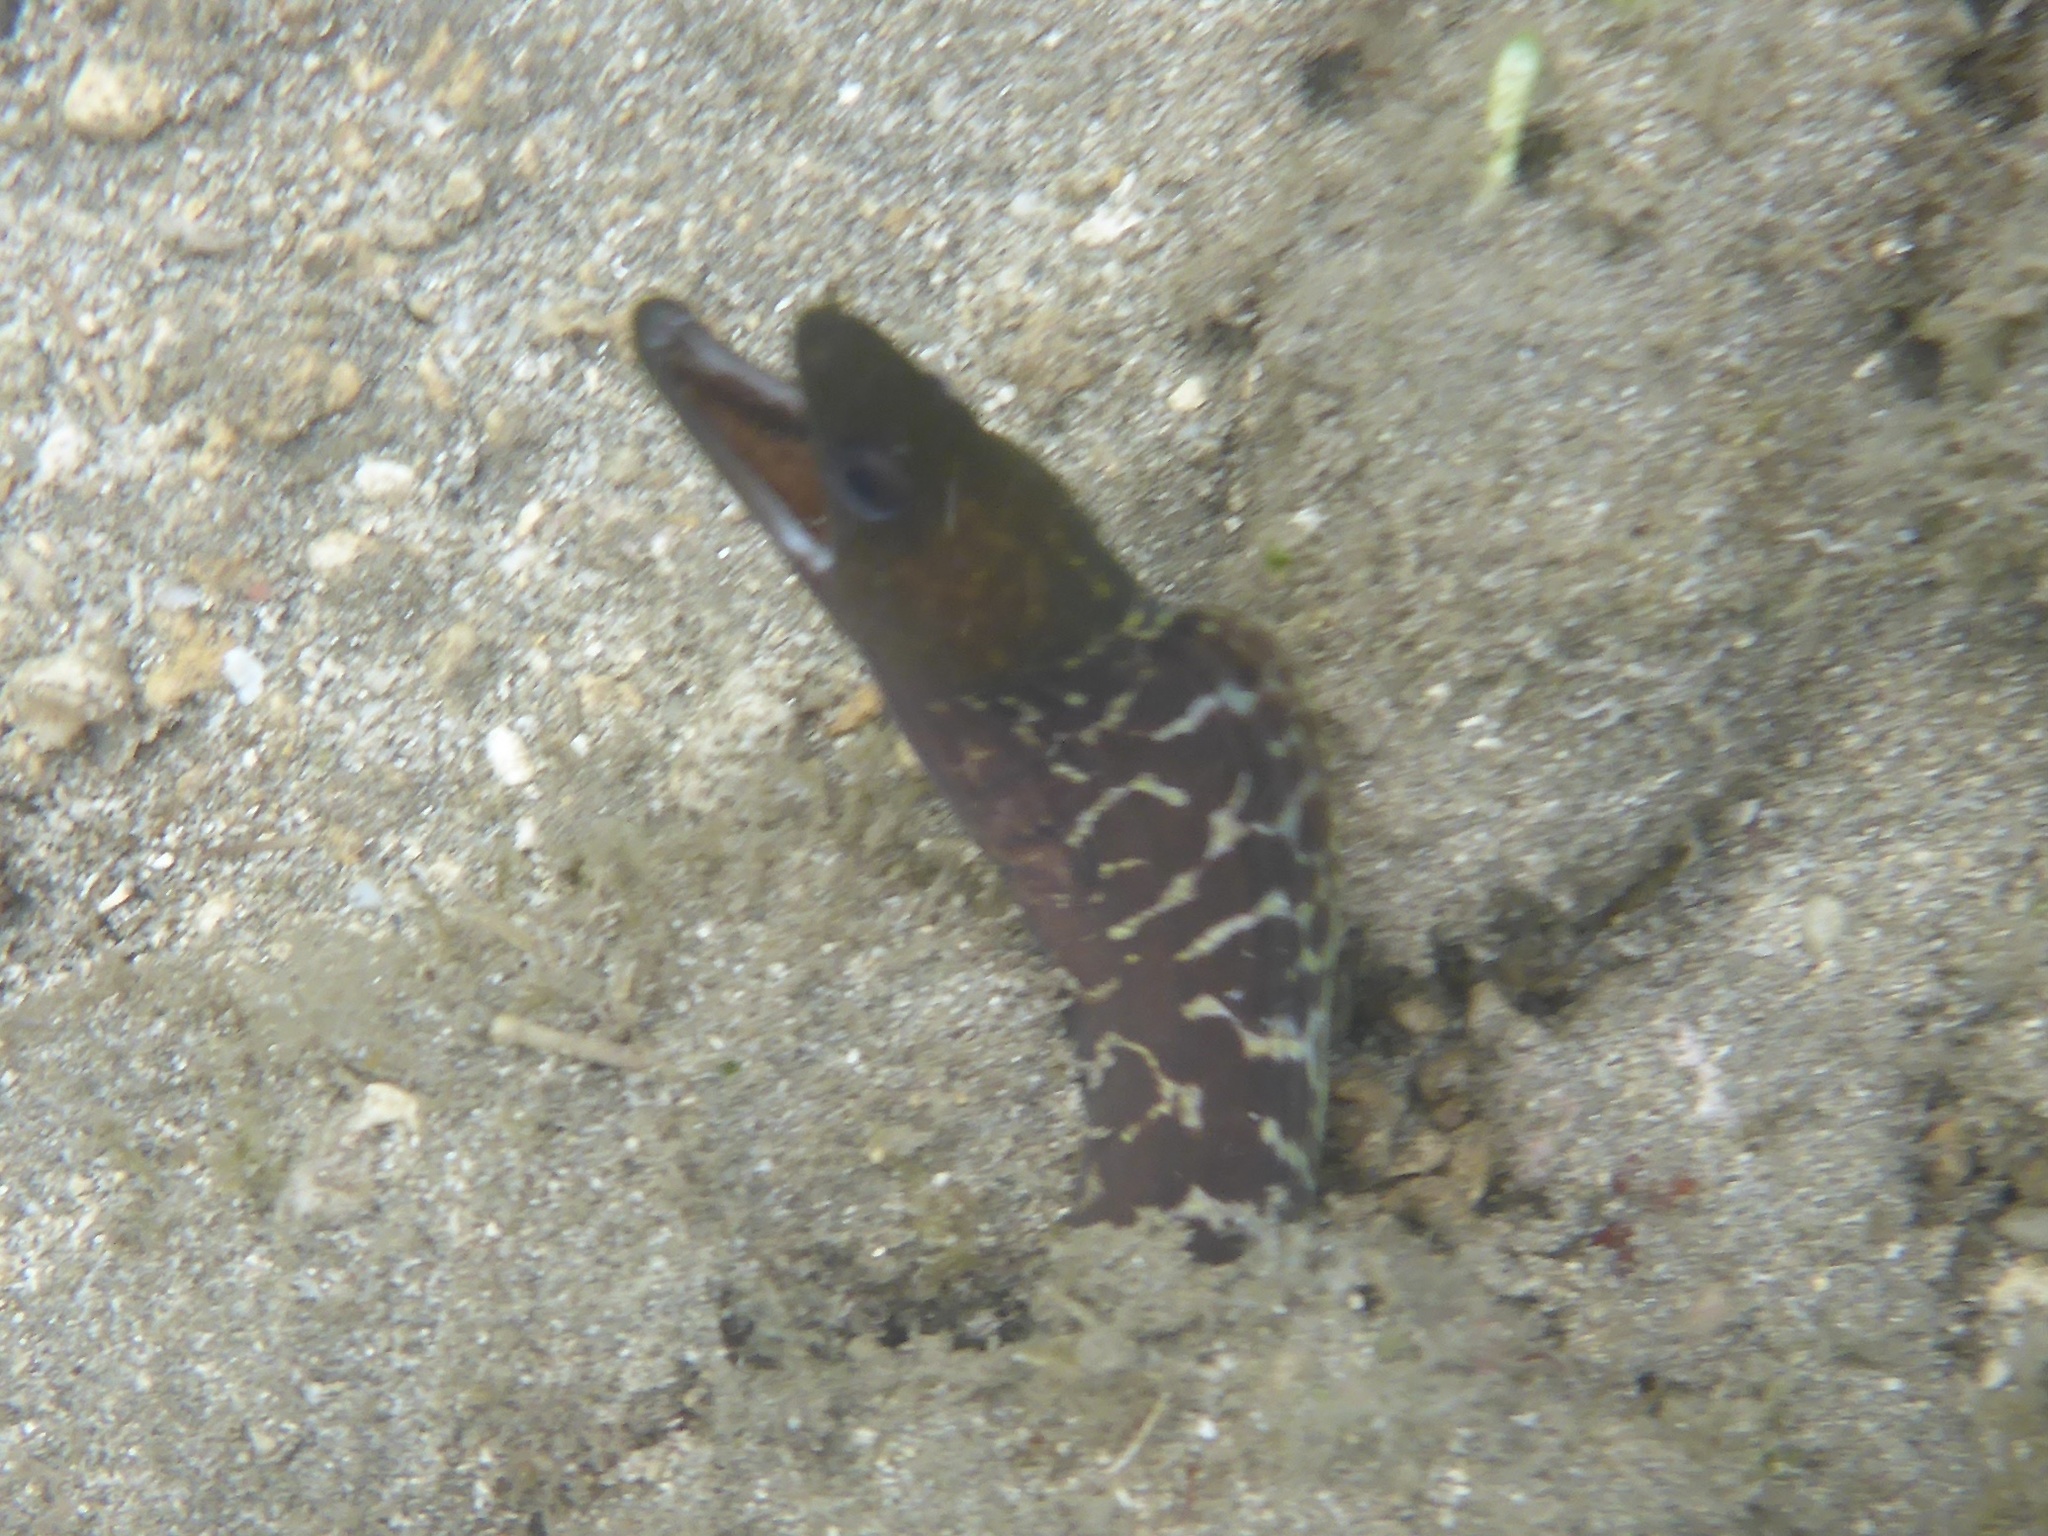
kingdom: Animalia
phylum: Chordata
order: Anguilliformes
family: Muraenidae
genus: Gymnothorax
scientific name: Gymnothorax undulatus
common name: Leopard moray
